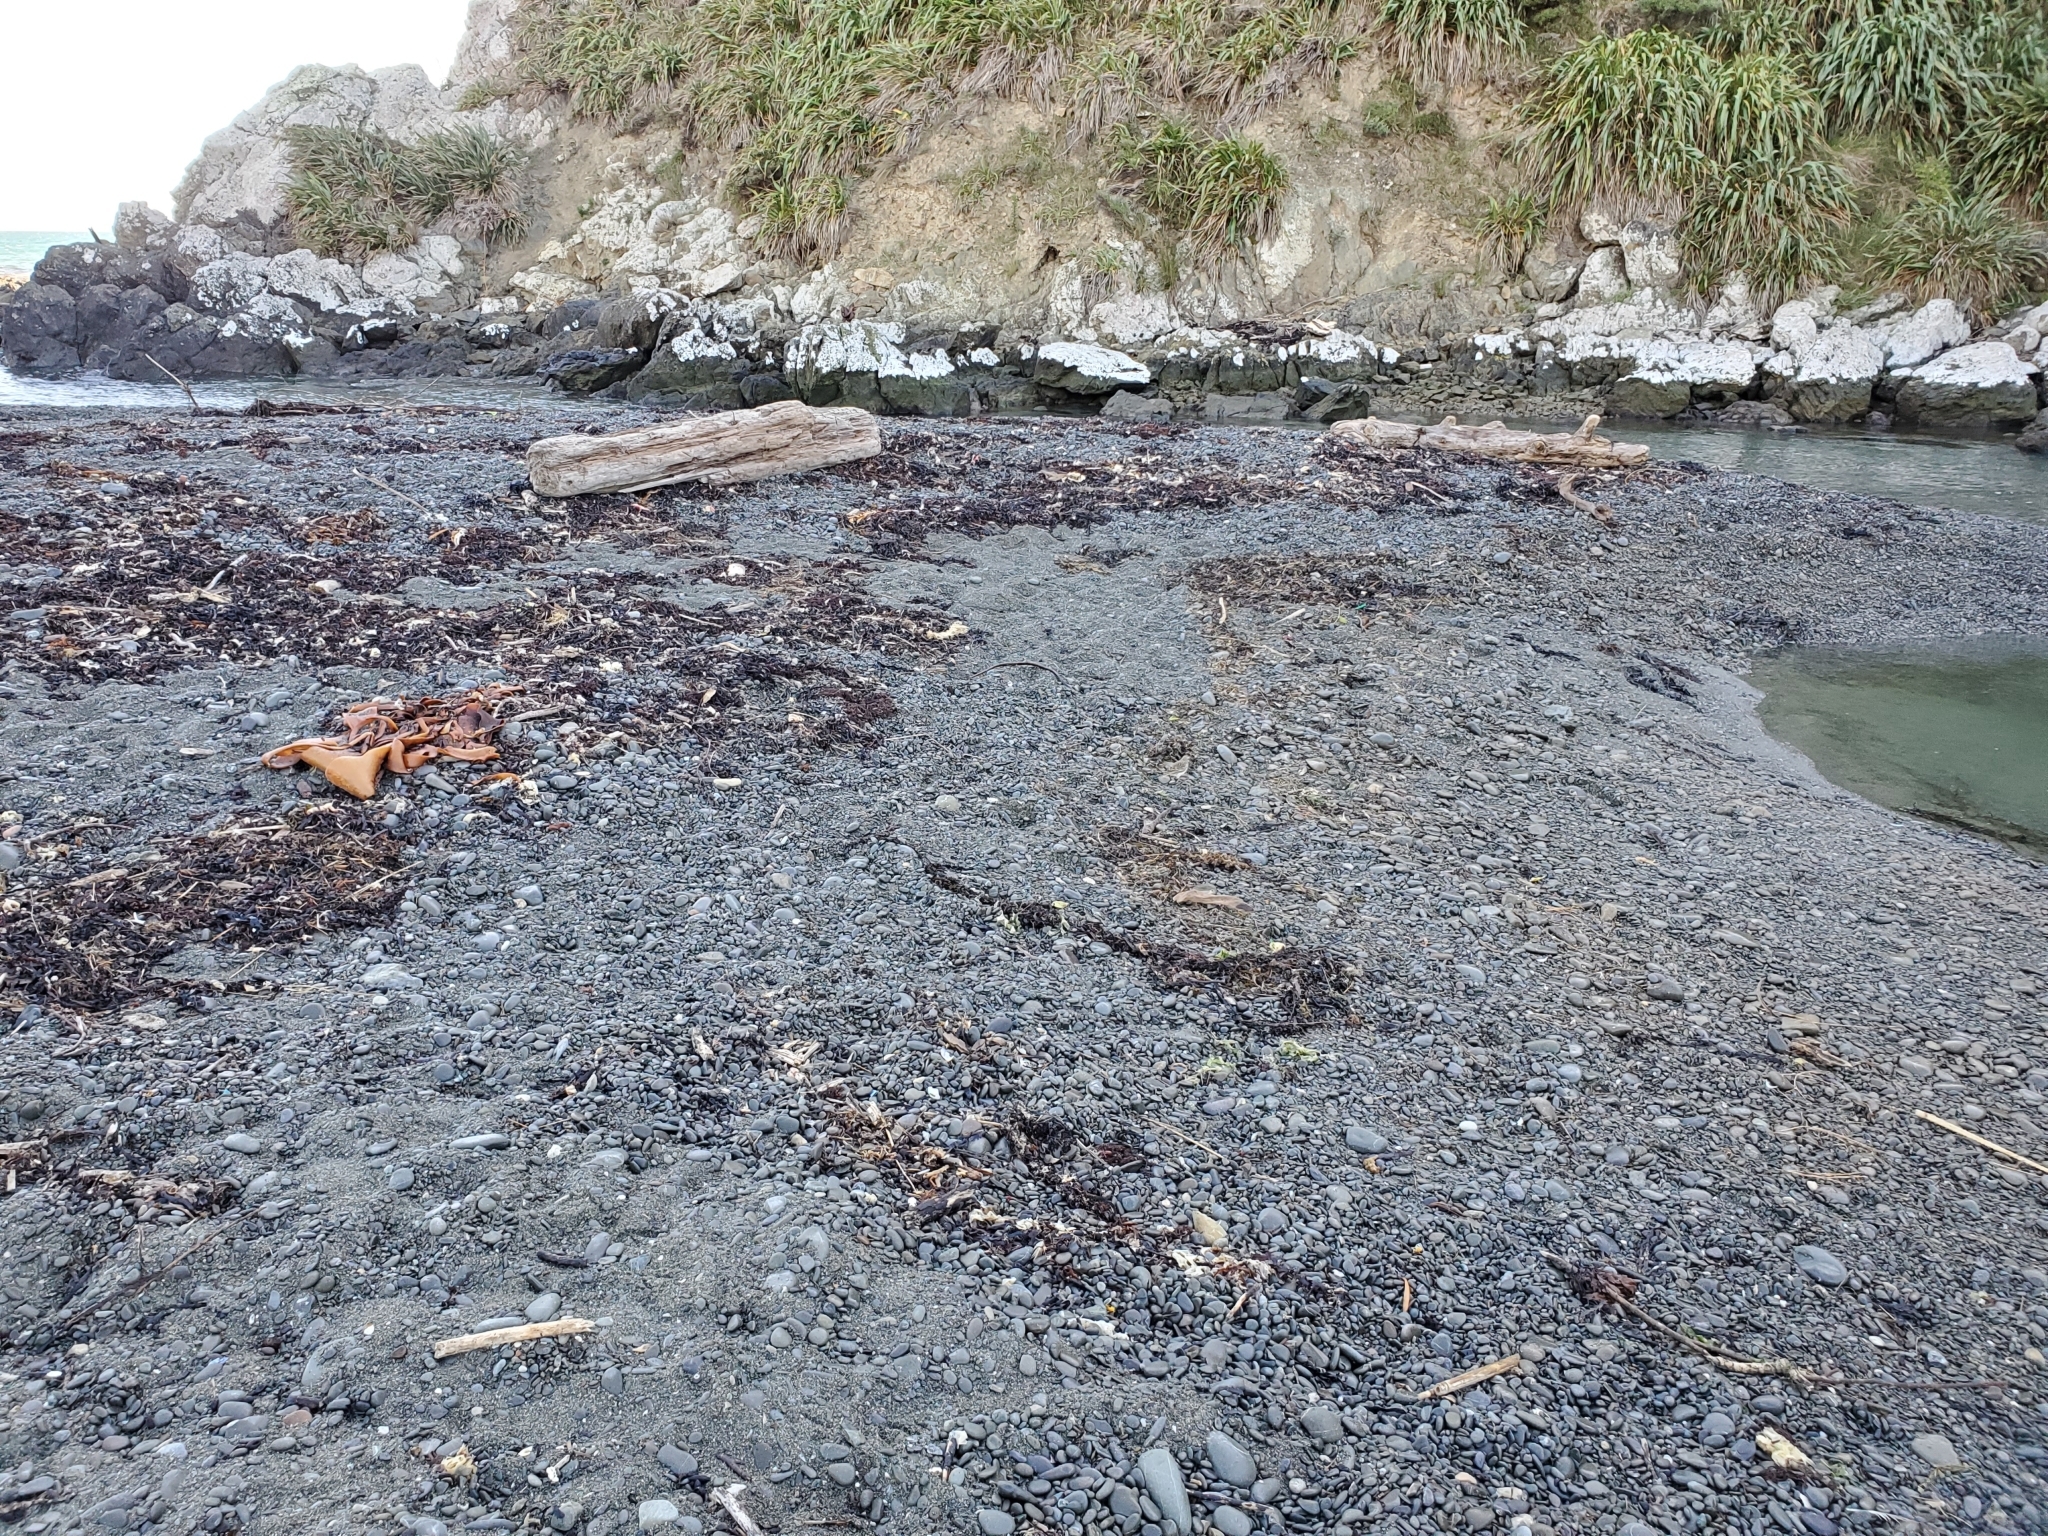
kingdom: Animalia
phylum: Chordata
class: Aves
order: Passeriformes
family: Motacillidae
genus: Anthus
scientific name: Anthus novaeseelandiae
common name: New zealand pipit
